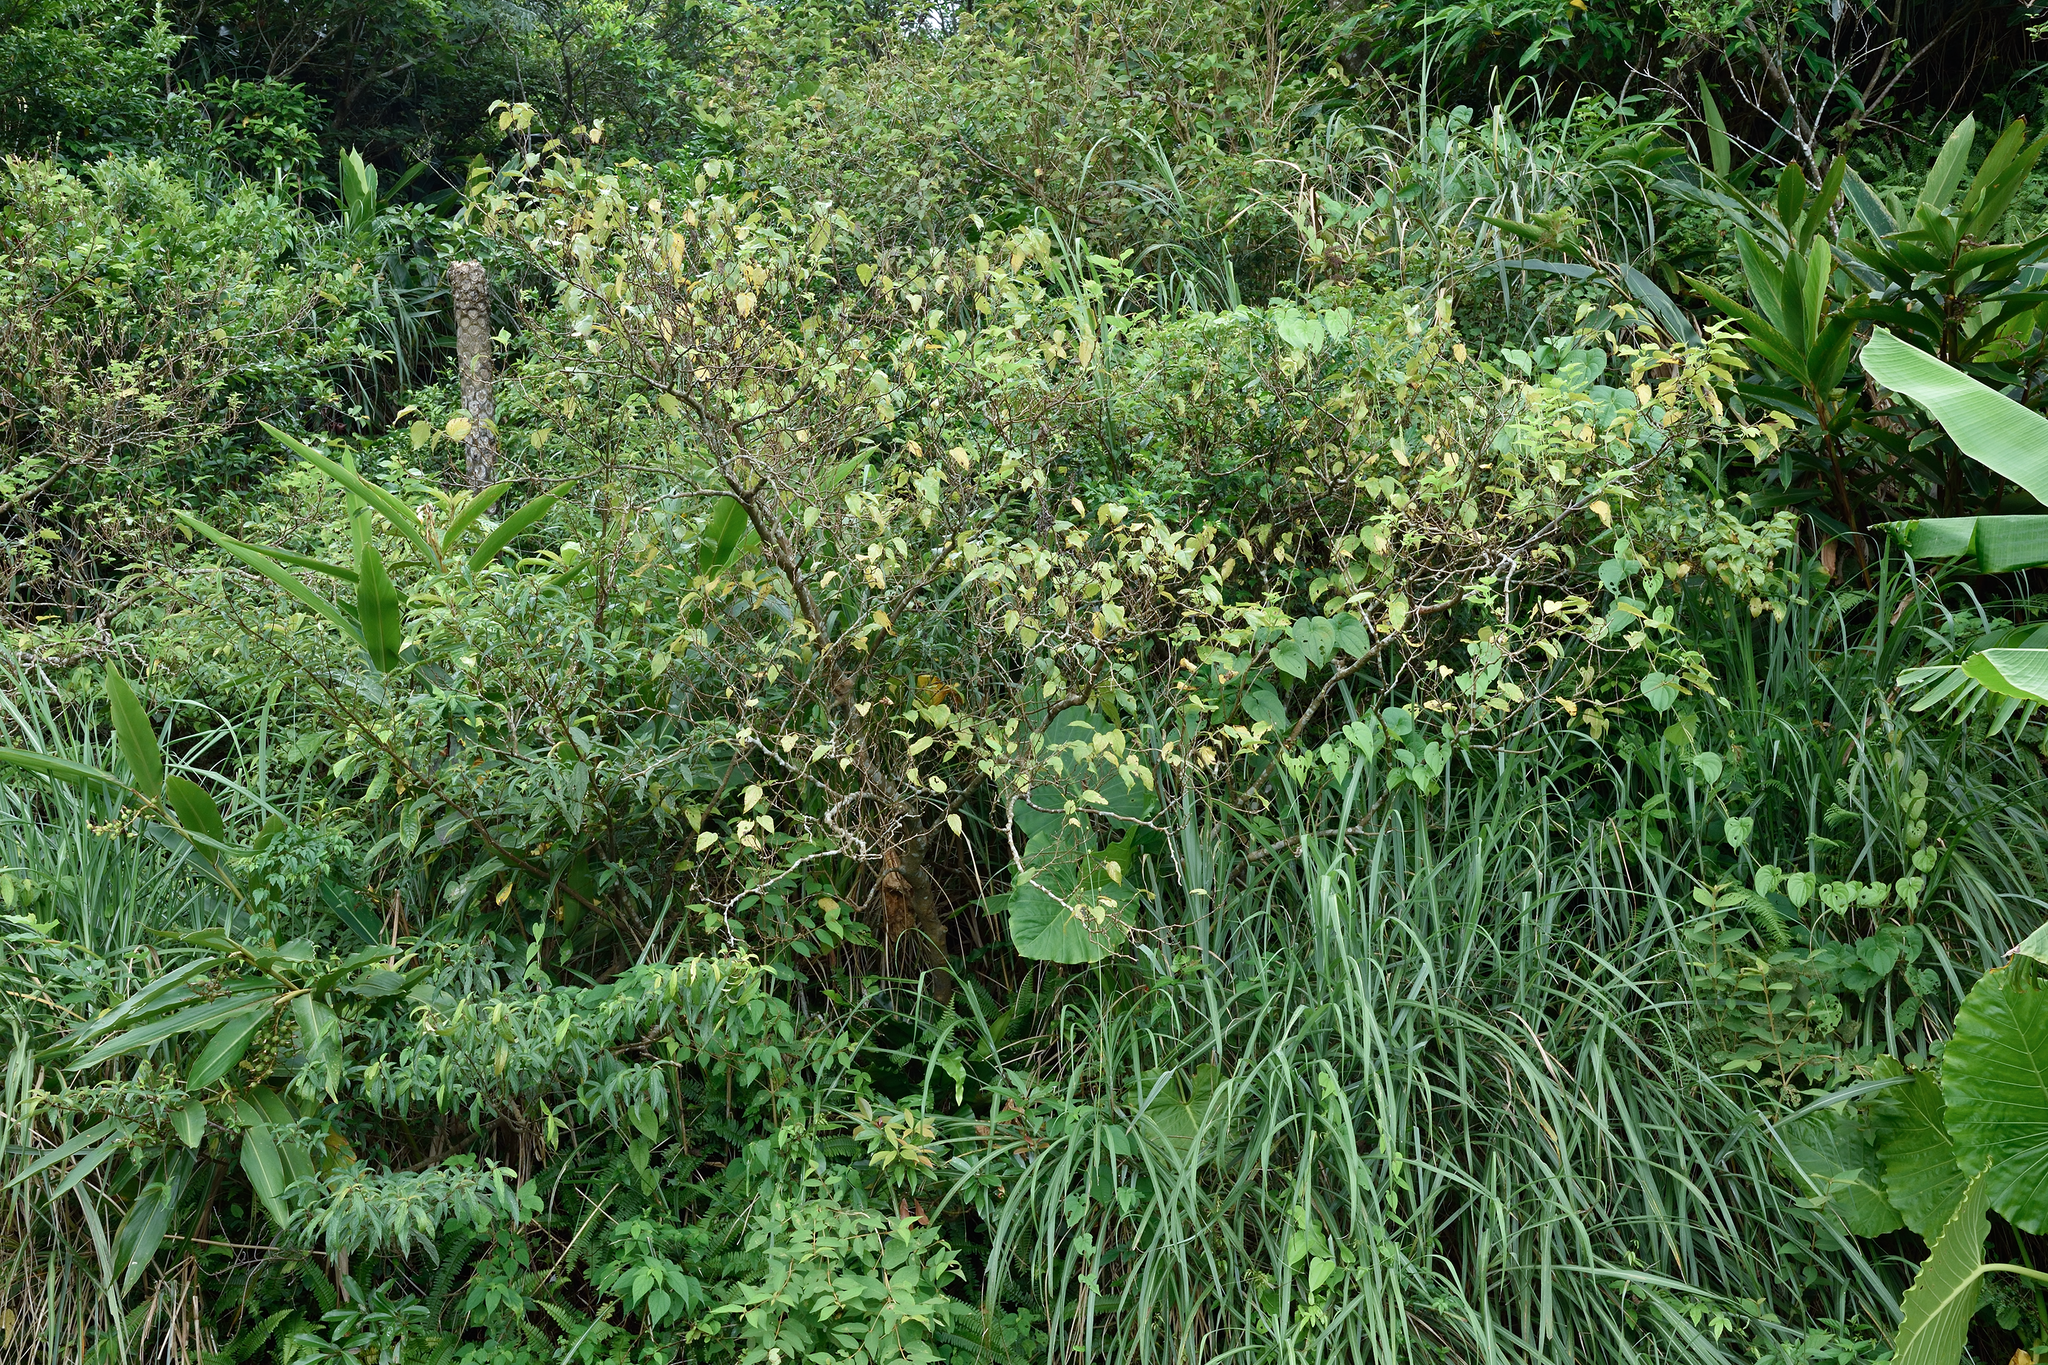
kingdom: Plantae
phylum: Tracheophyta
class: Magnoliopsida
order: Rosales
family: Moraceae
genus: Morus
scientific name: Morus indica
